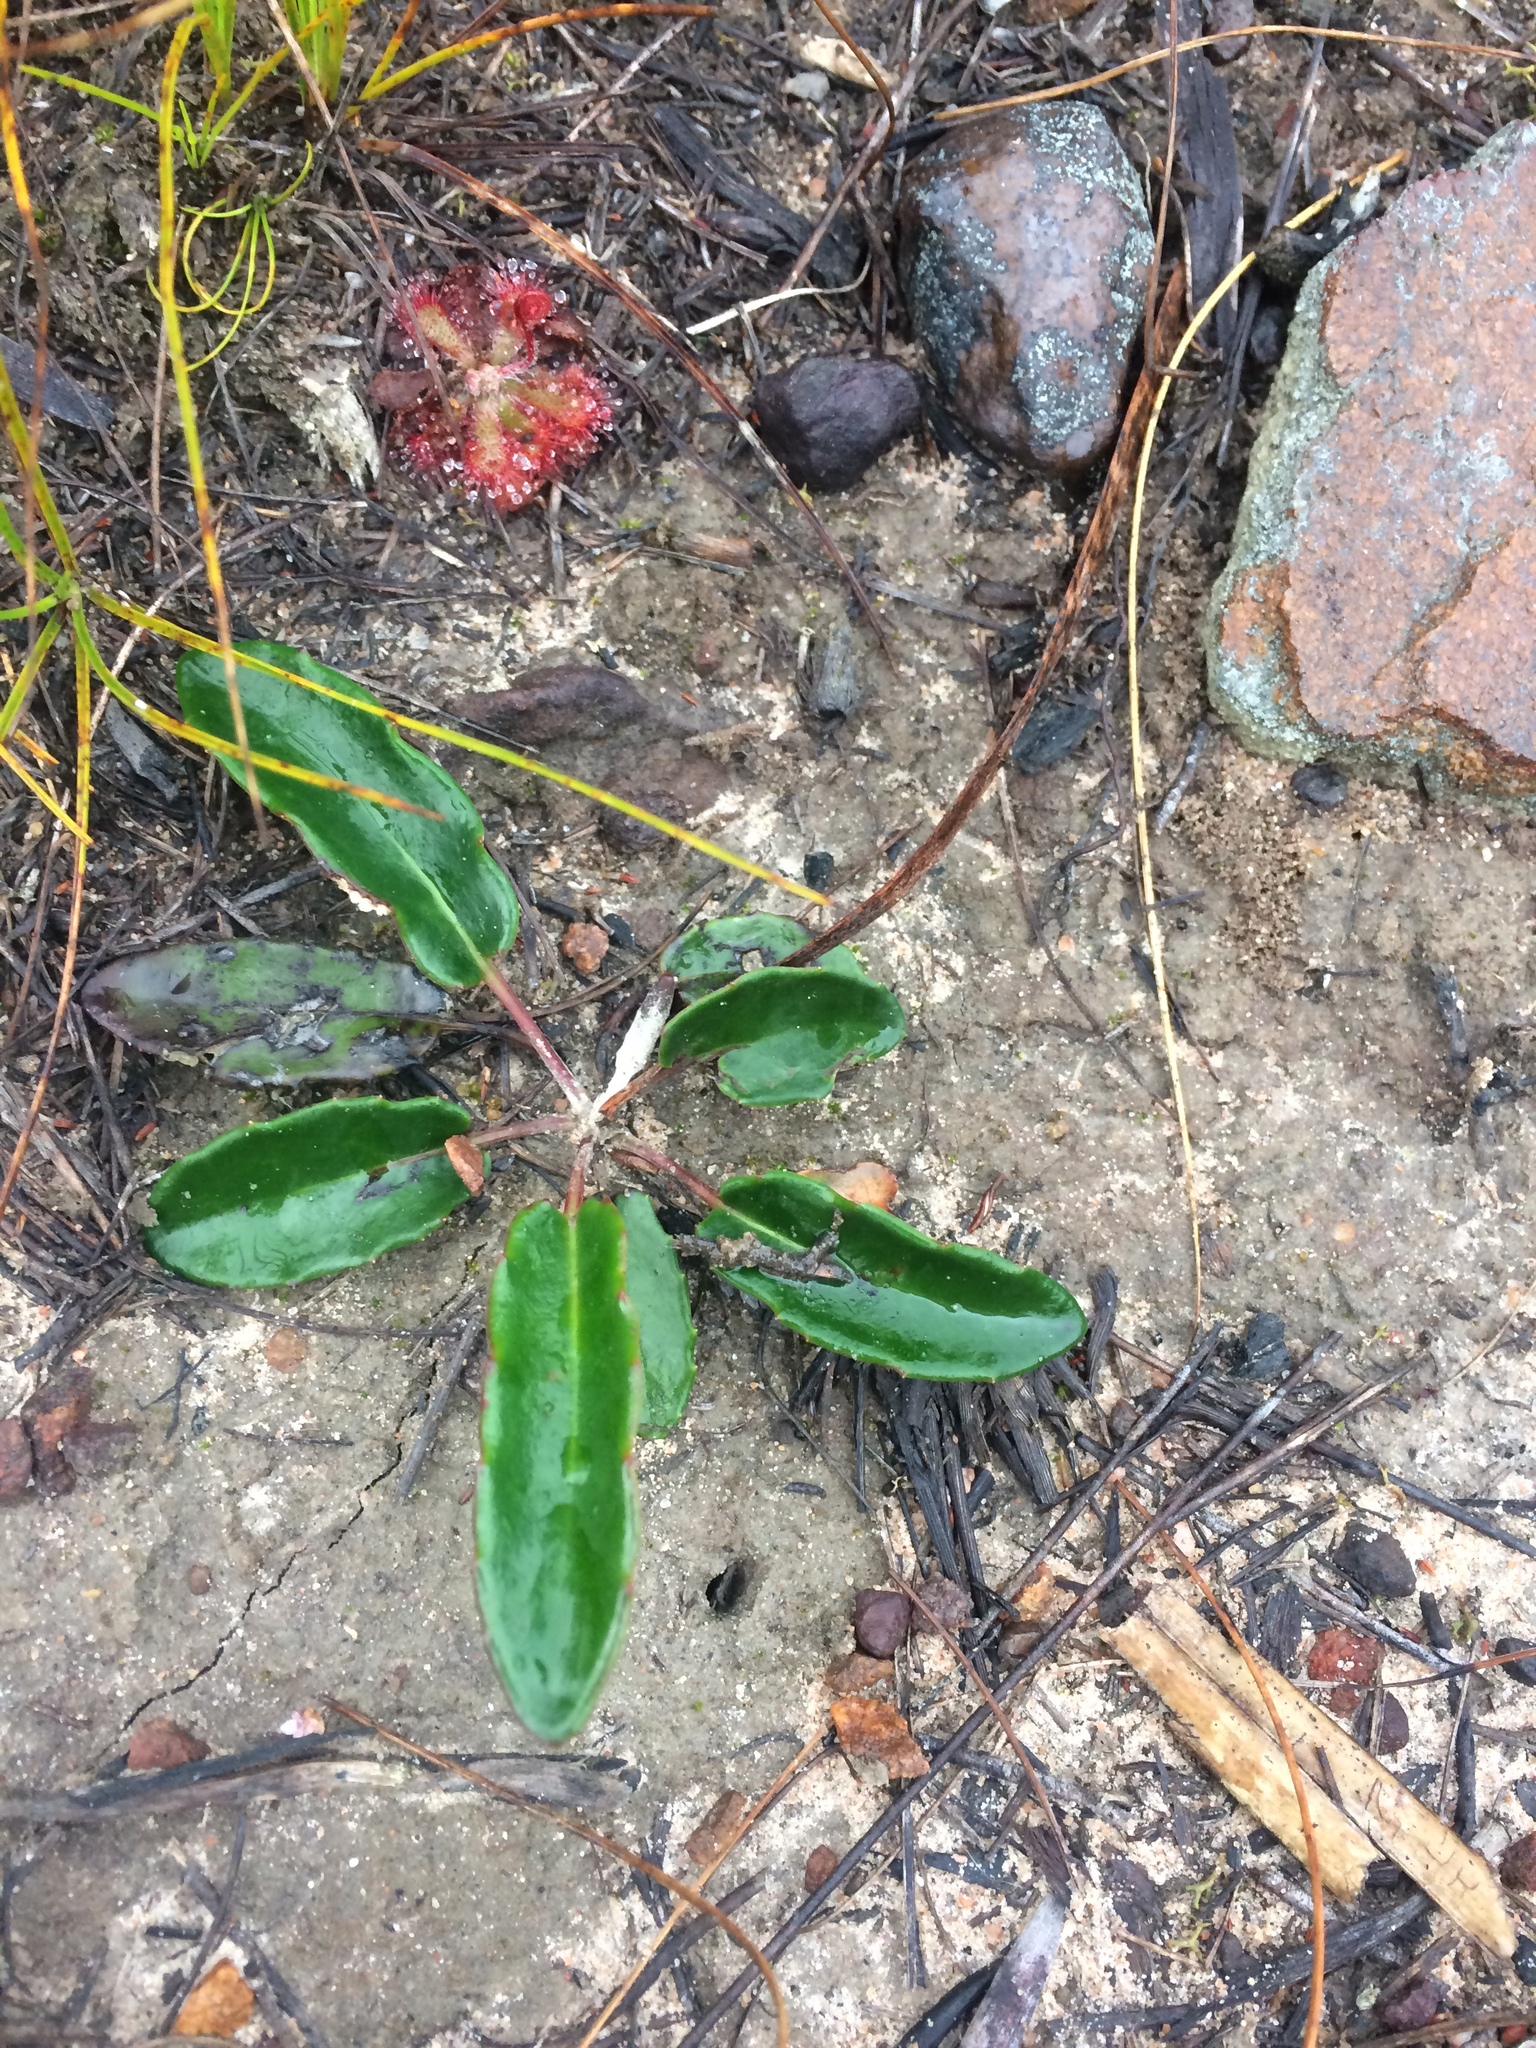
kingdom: Plantae
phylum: Tracheophyta
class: Magnoliopsida
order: Asterales
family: Asteraceae
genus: Gerbera
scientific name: Gerbera serrata
